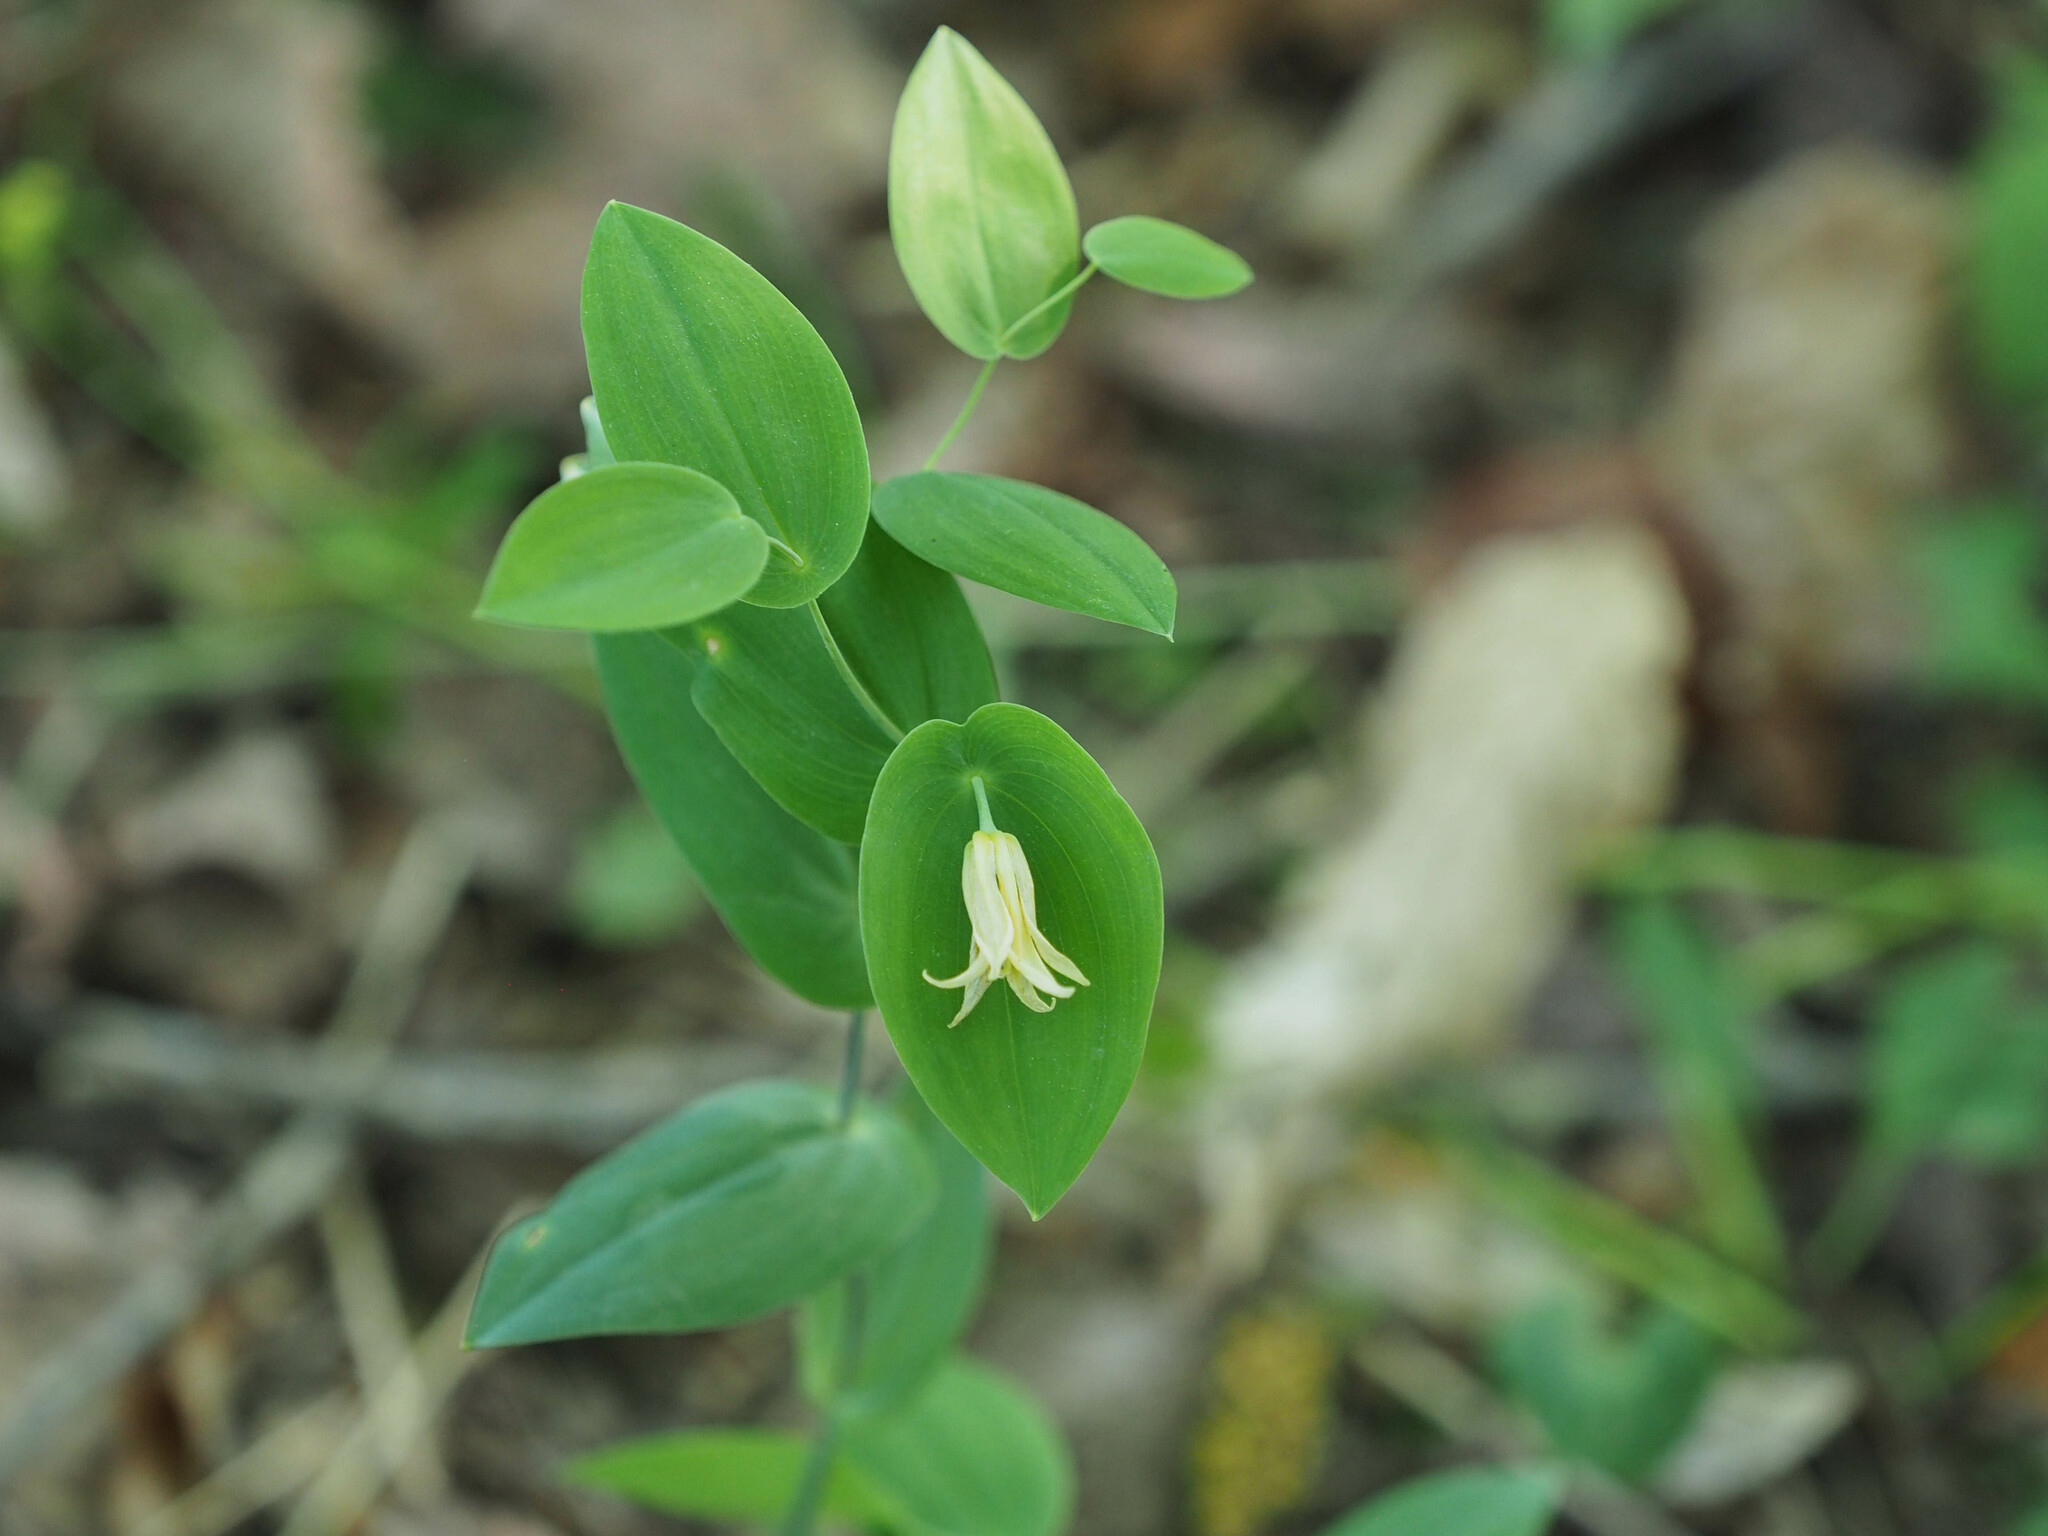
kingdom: Plantae
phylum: Tracheophyta
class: Liliopsida
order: Liliales
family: Colchicaceae
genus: Uvularia
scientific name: Uvularia perfoliata
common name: Perfoliate bellwort
